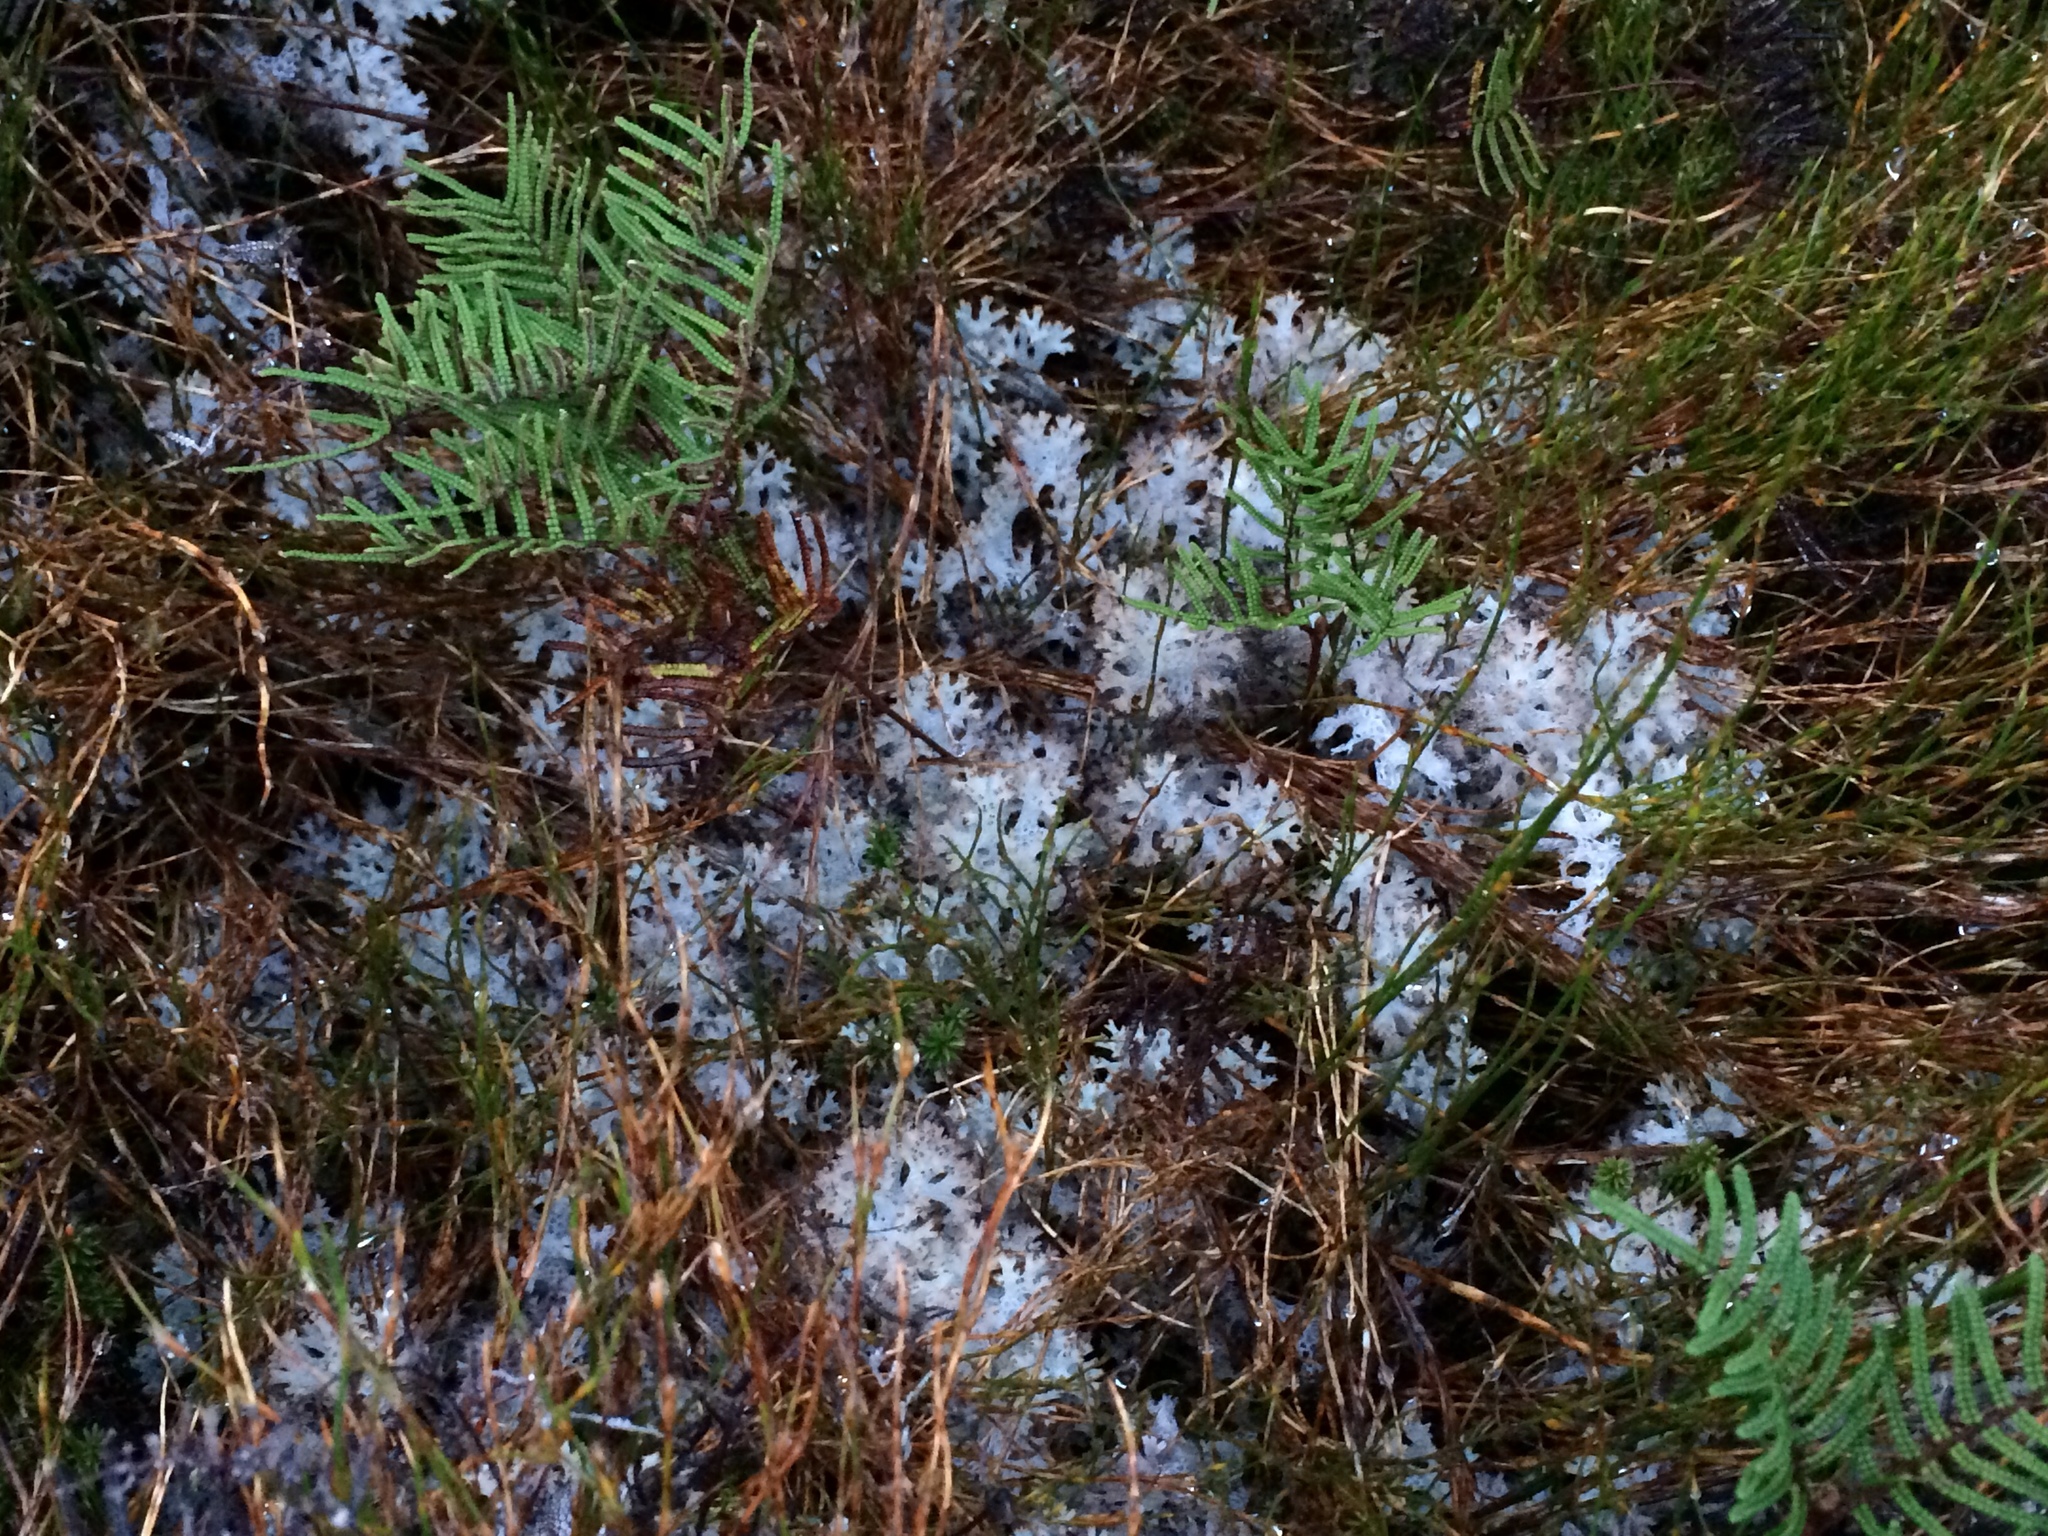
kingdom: Fungi
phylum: Ascomycota
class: Lecanoromycetes
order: Lecanorales
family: Cladoniaceae
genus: Pulchrocladia
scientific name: Pulchrocladia retipora
